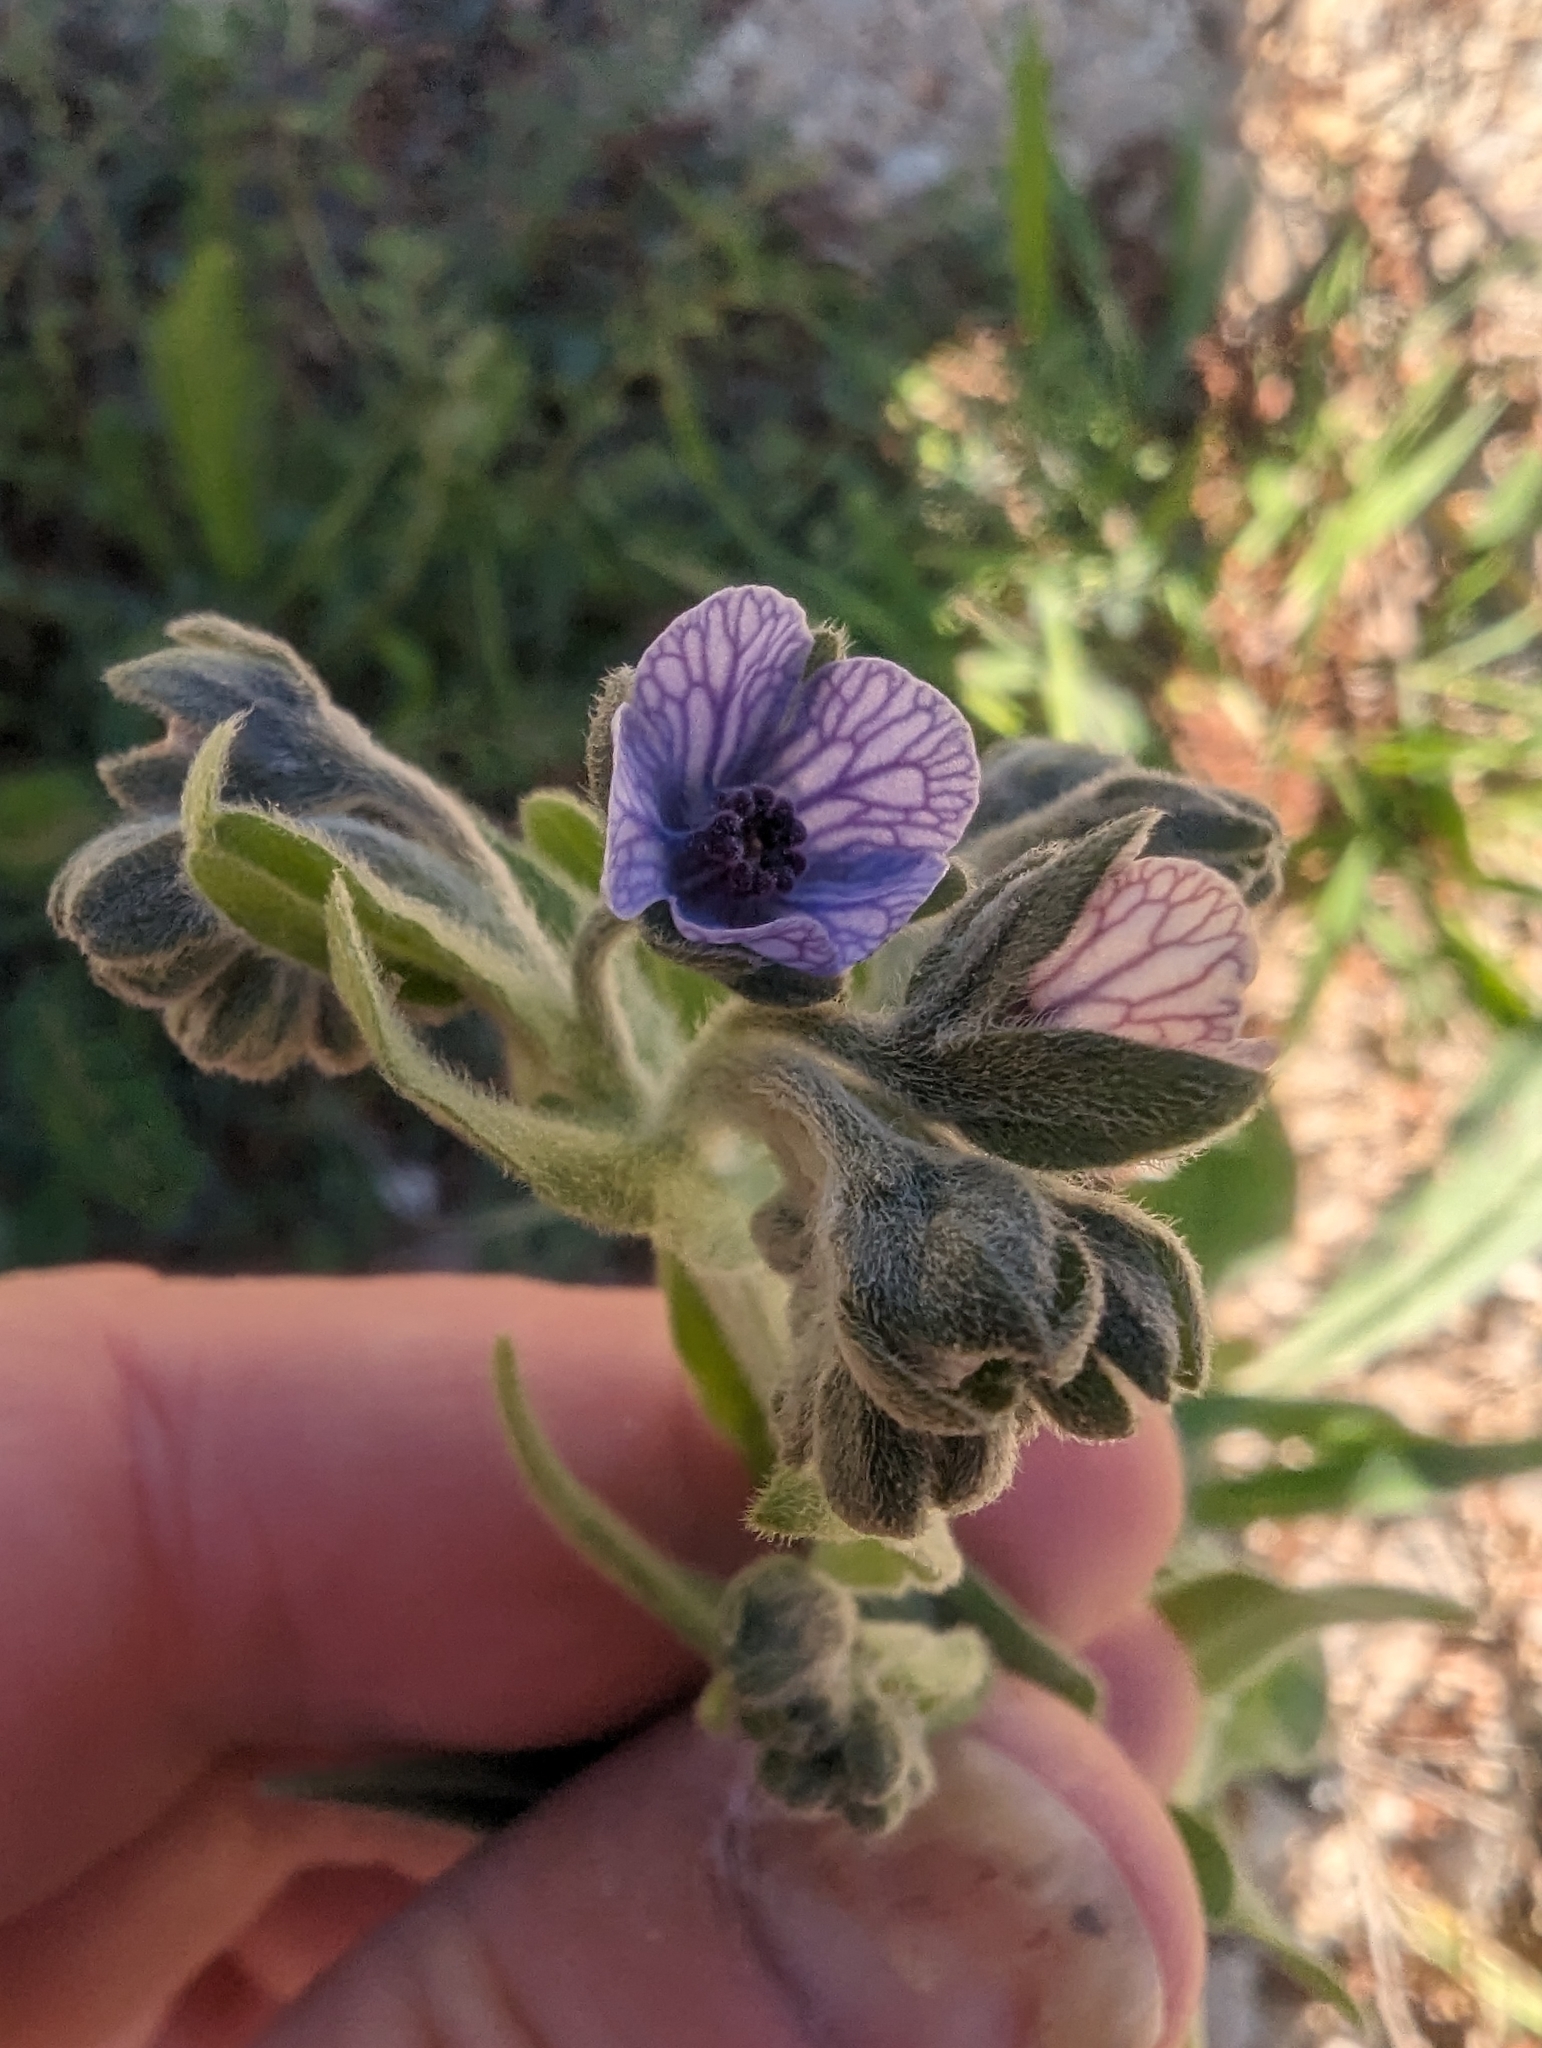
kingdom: Plantae
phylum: Tracheophyta
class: Magnoliopsida
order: Boraginales
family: Boraginaceae
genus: Cynoglossum
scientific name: Cynoglossum creticum
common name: Blue hound's tongue
